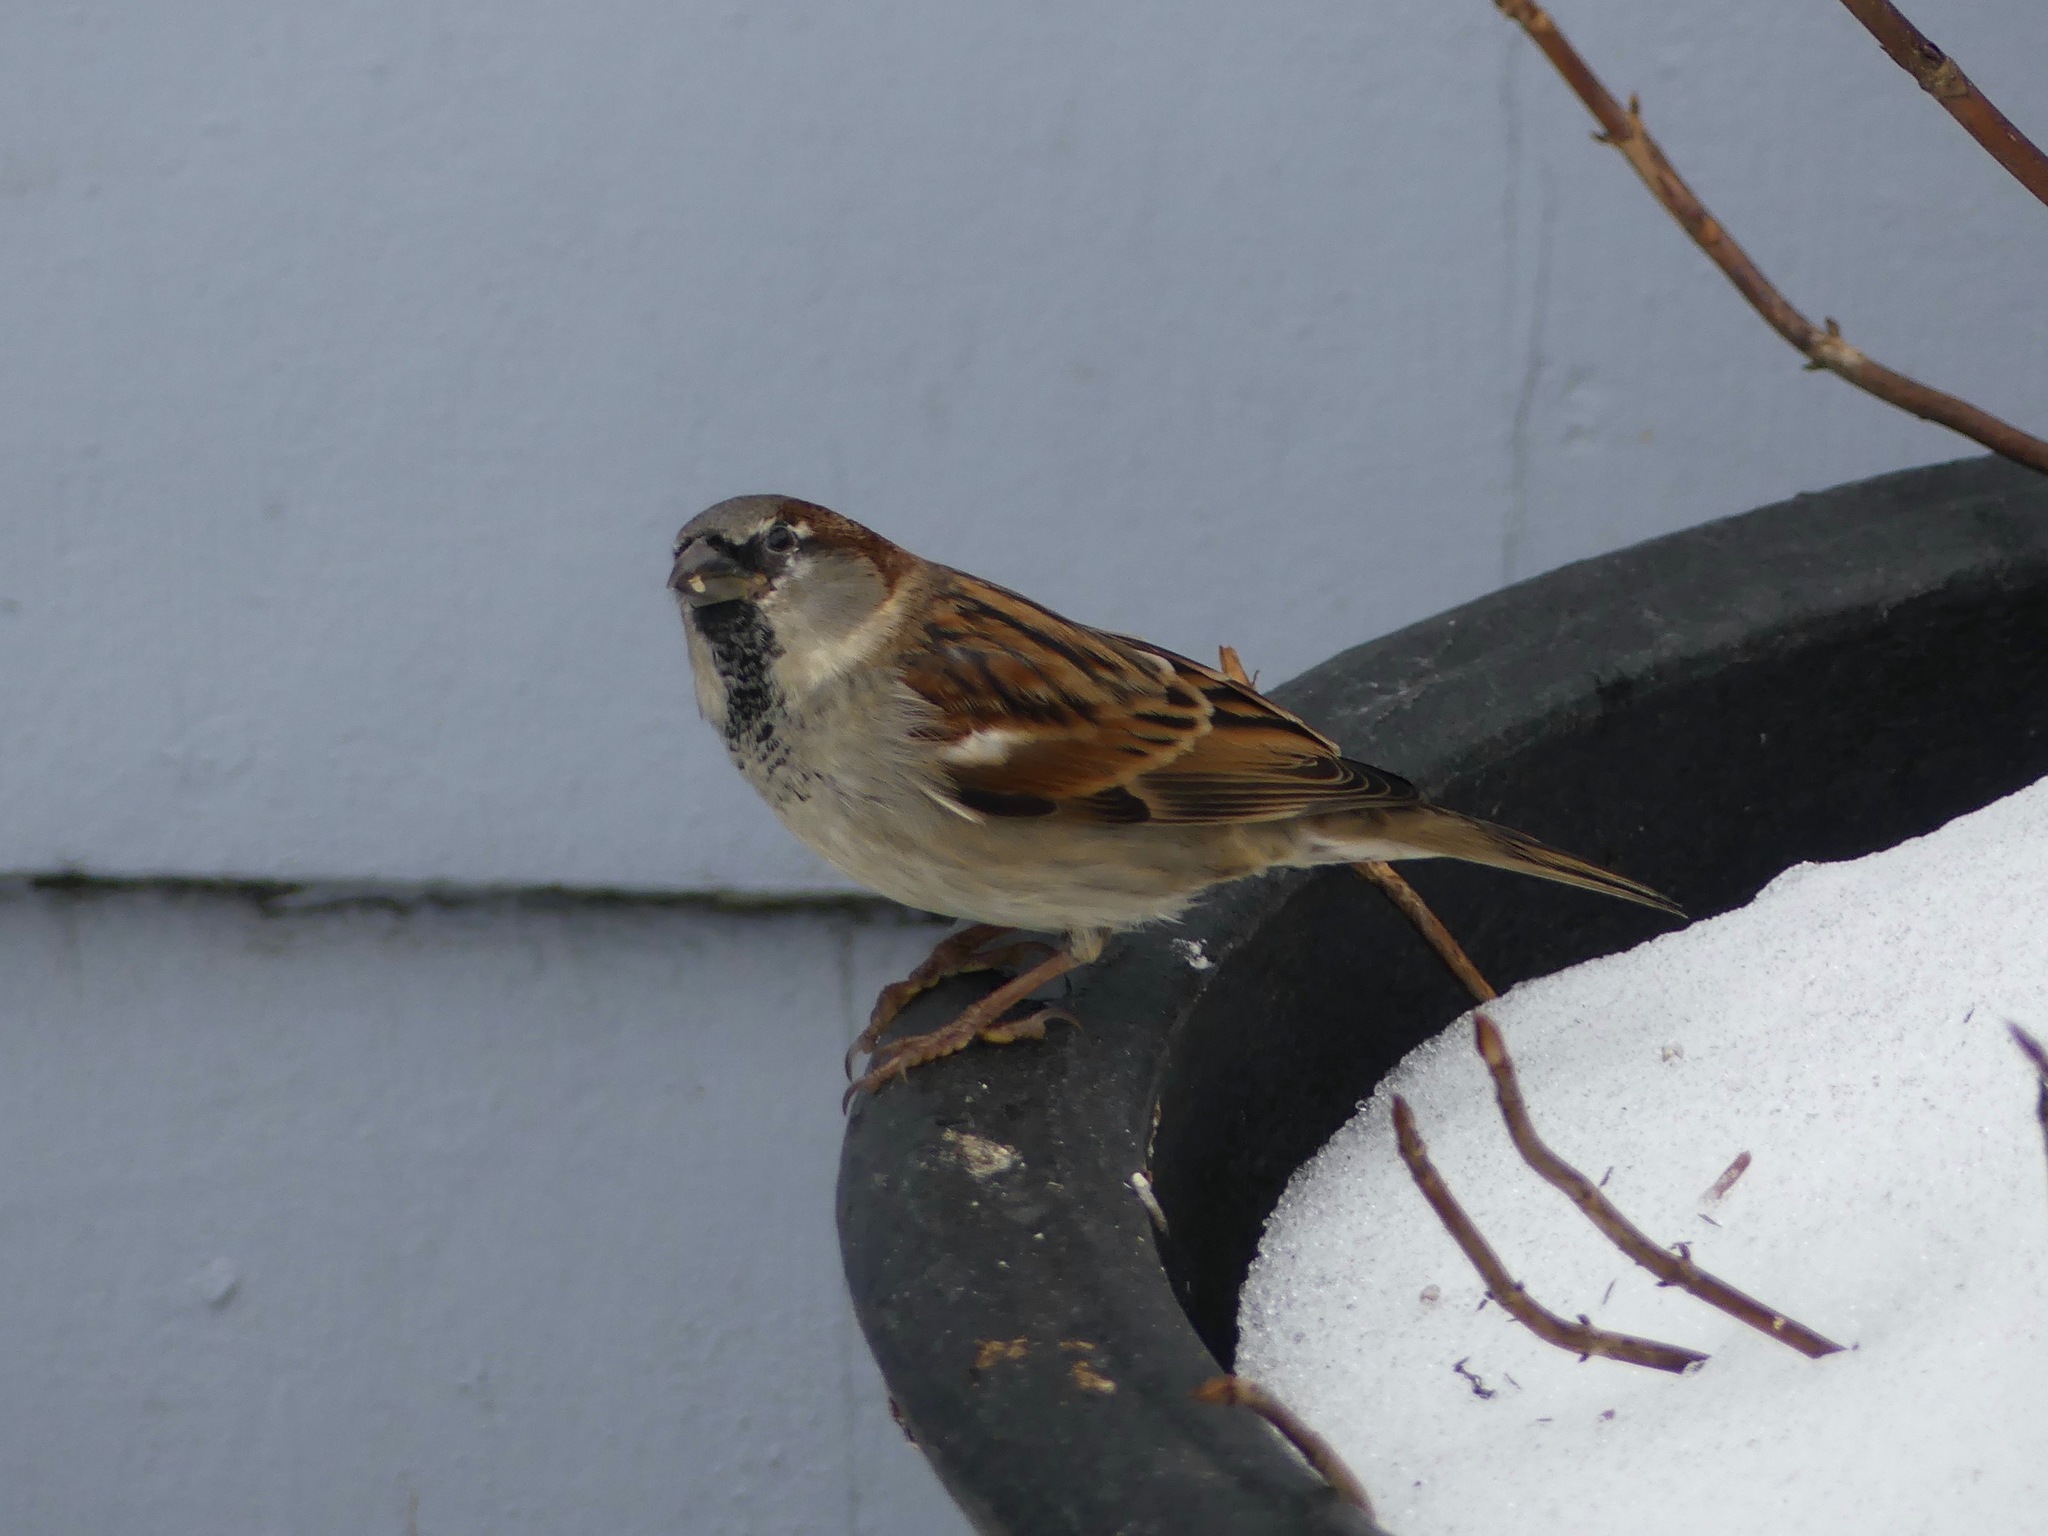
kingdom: Animalia
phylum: Chordata
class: Aves
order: Passeriformes
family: Passeridae
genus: Passer
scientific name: Passer domesticus
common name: House sparrow
